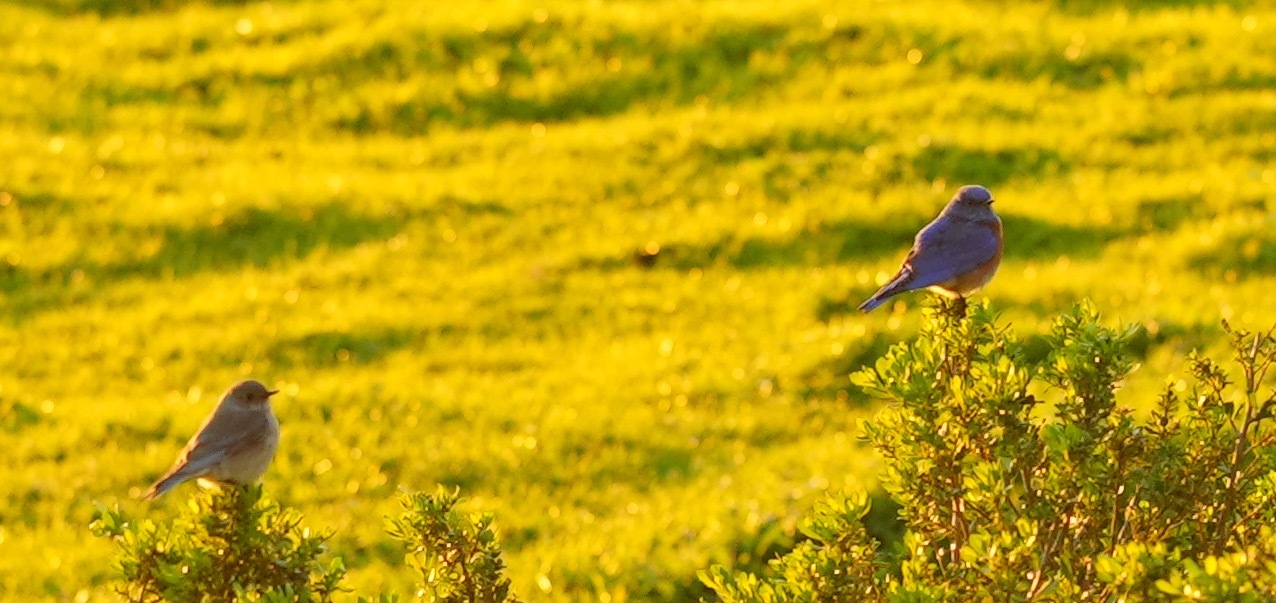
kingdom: Animalia
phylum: Chordata
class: Aves
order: Passeriformes
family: Turdidae
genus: Sialia
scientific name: Sialia mexicana
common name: Western bluebird
